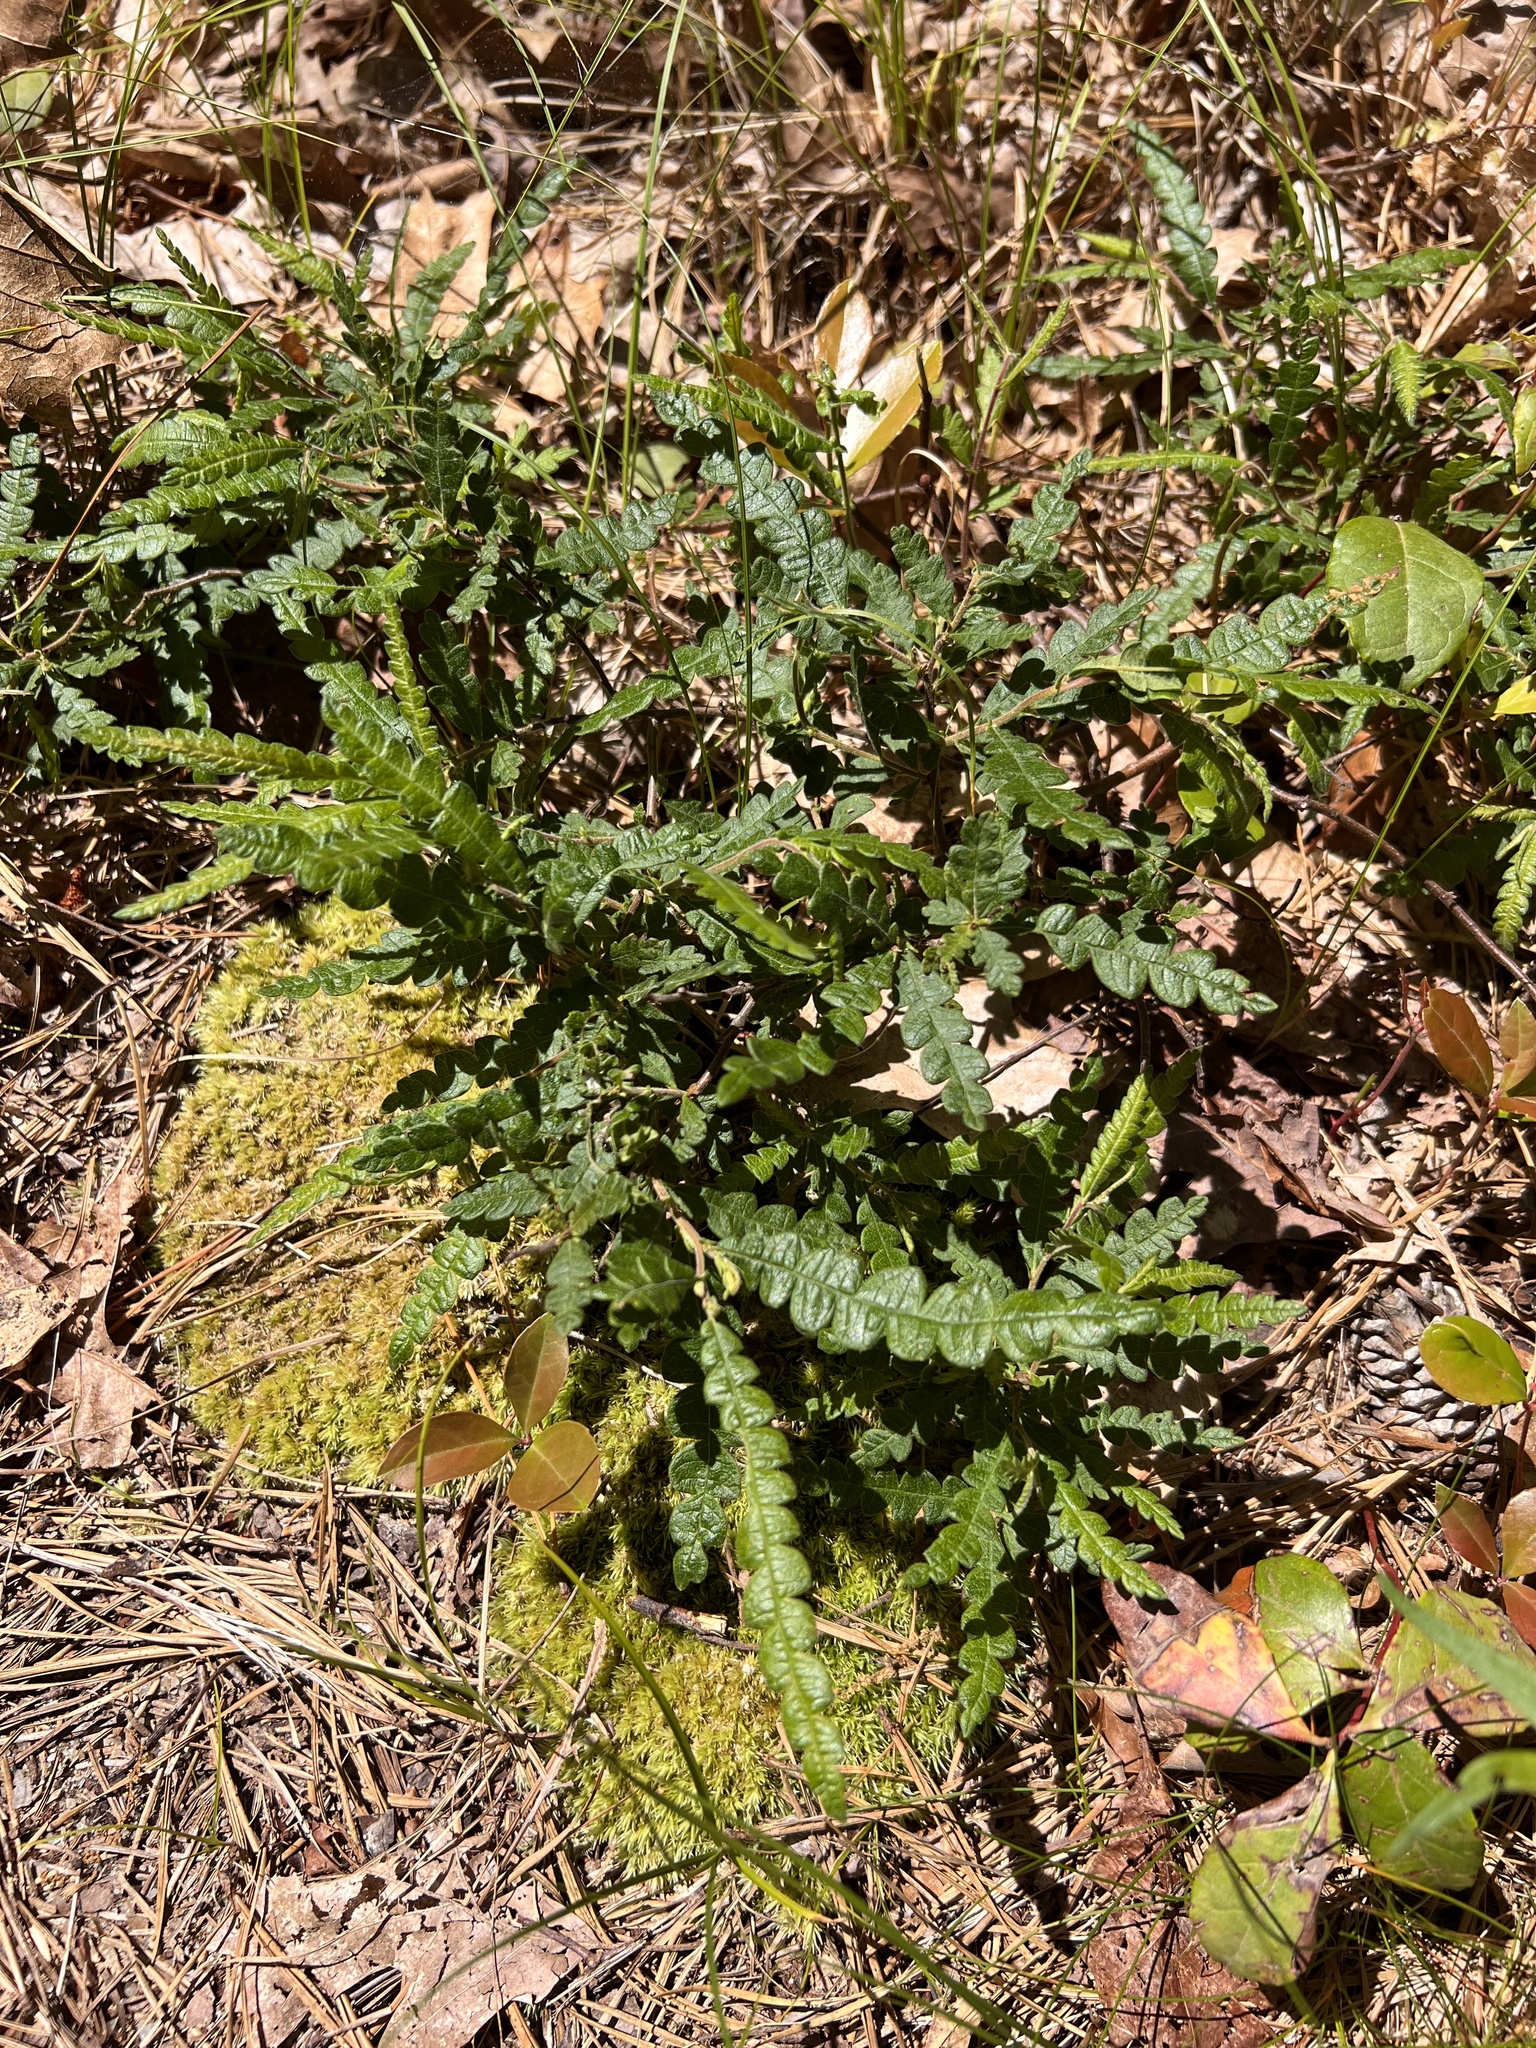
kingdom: Plantae
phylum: Tracheophyta
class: Magnoliopsida
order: Fagales
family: Myricaceae
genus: Comptonia
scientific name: Comptonia peregrina
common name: Sweet-fern
